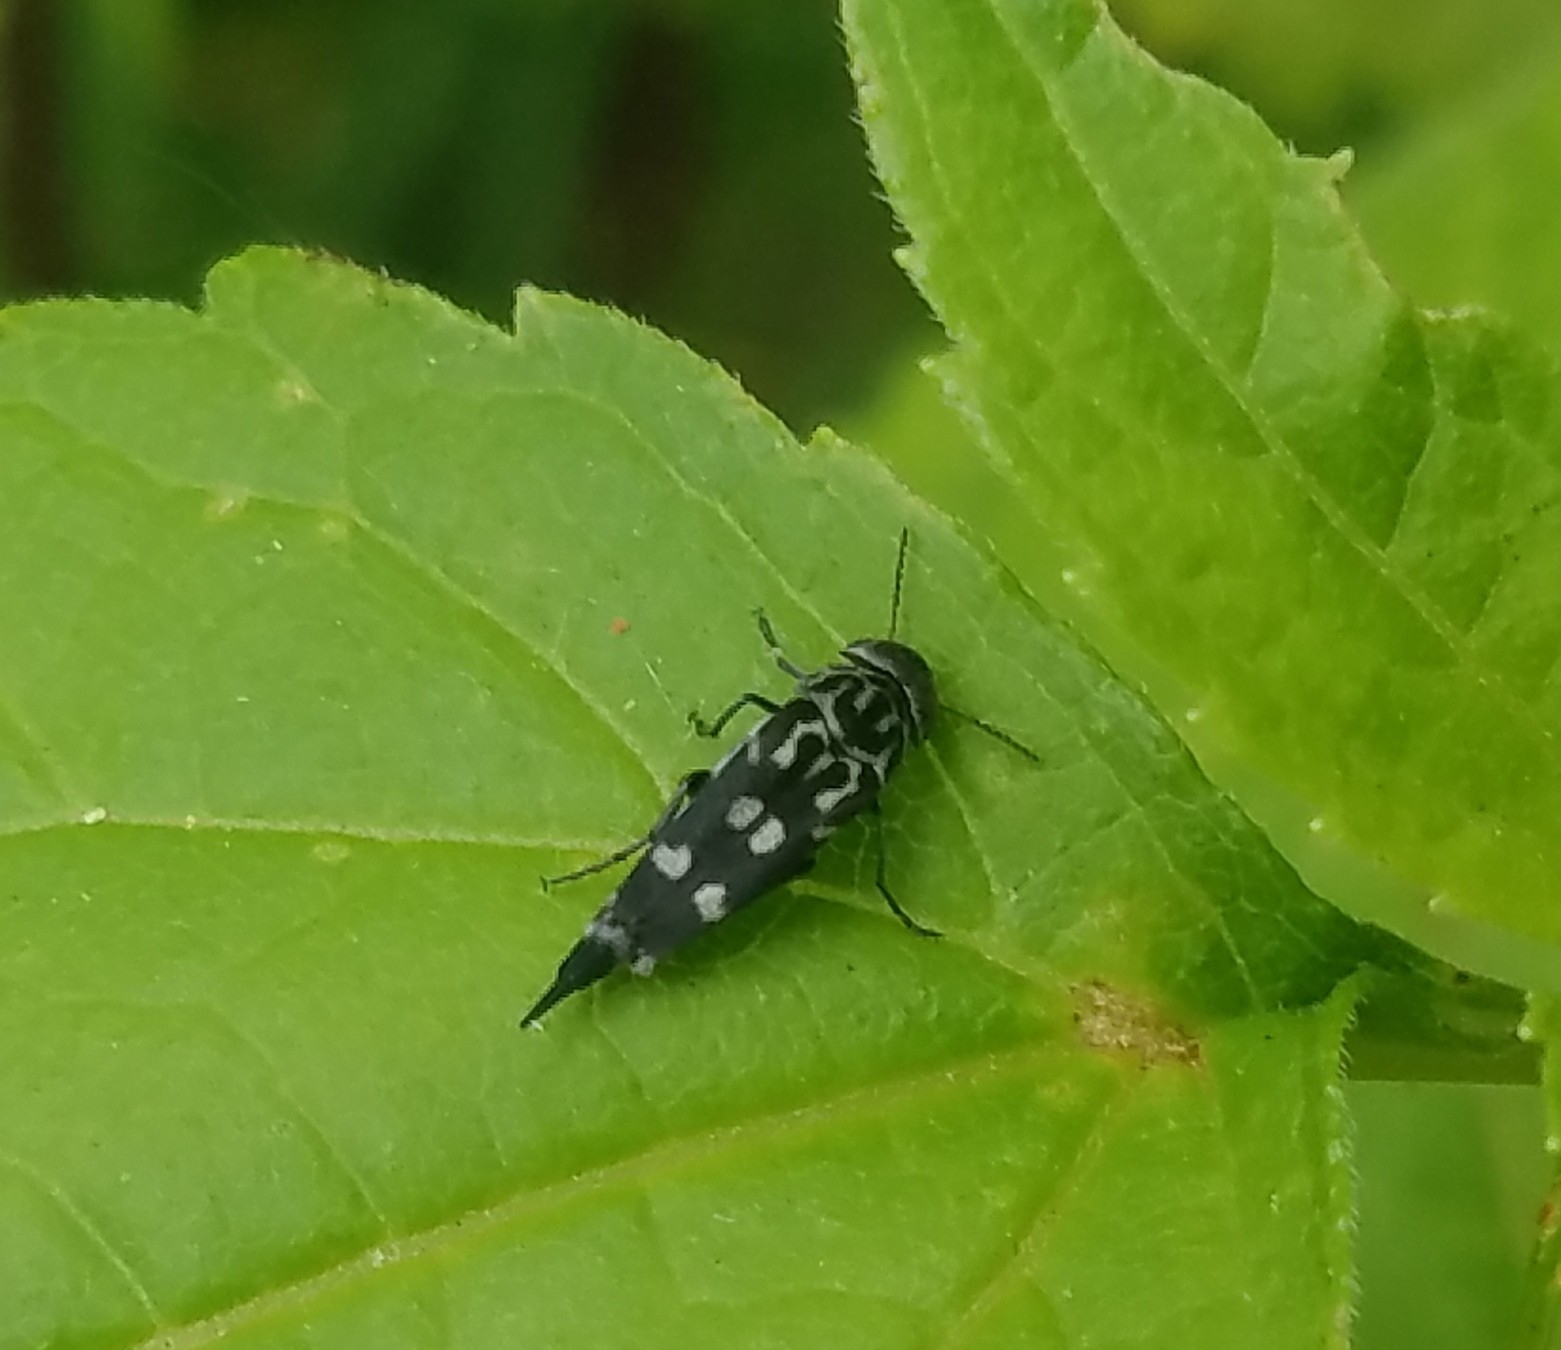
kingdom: Animalia
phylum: Arthropoda
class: Insecta
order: Coleoptera
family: Mordellidae
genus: Hoshihananomia
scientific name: Hoshihananomia octopunctata
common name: Eight-spotted tumbling flower beetle
